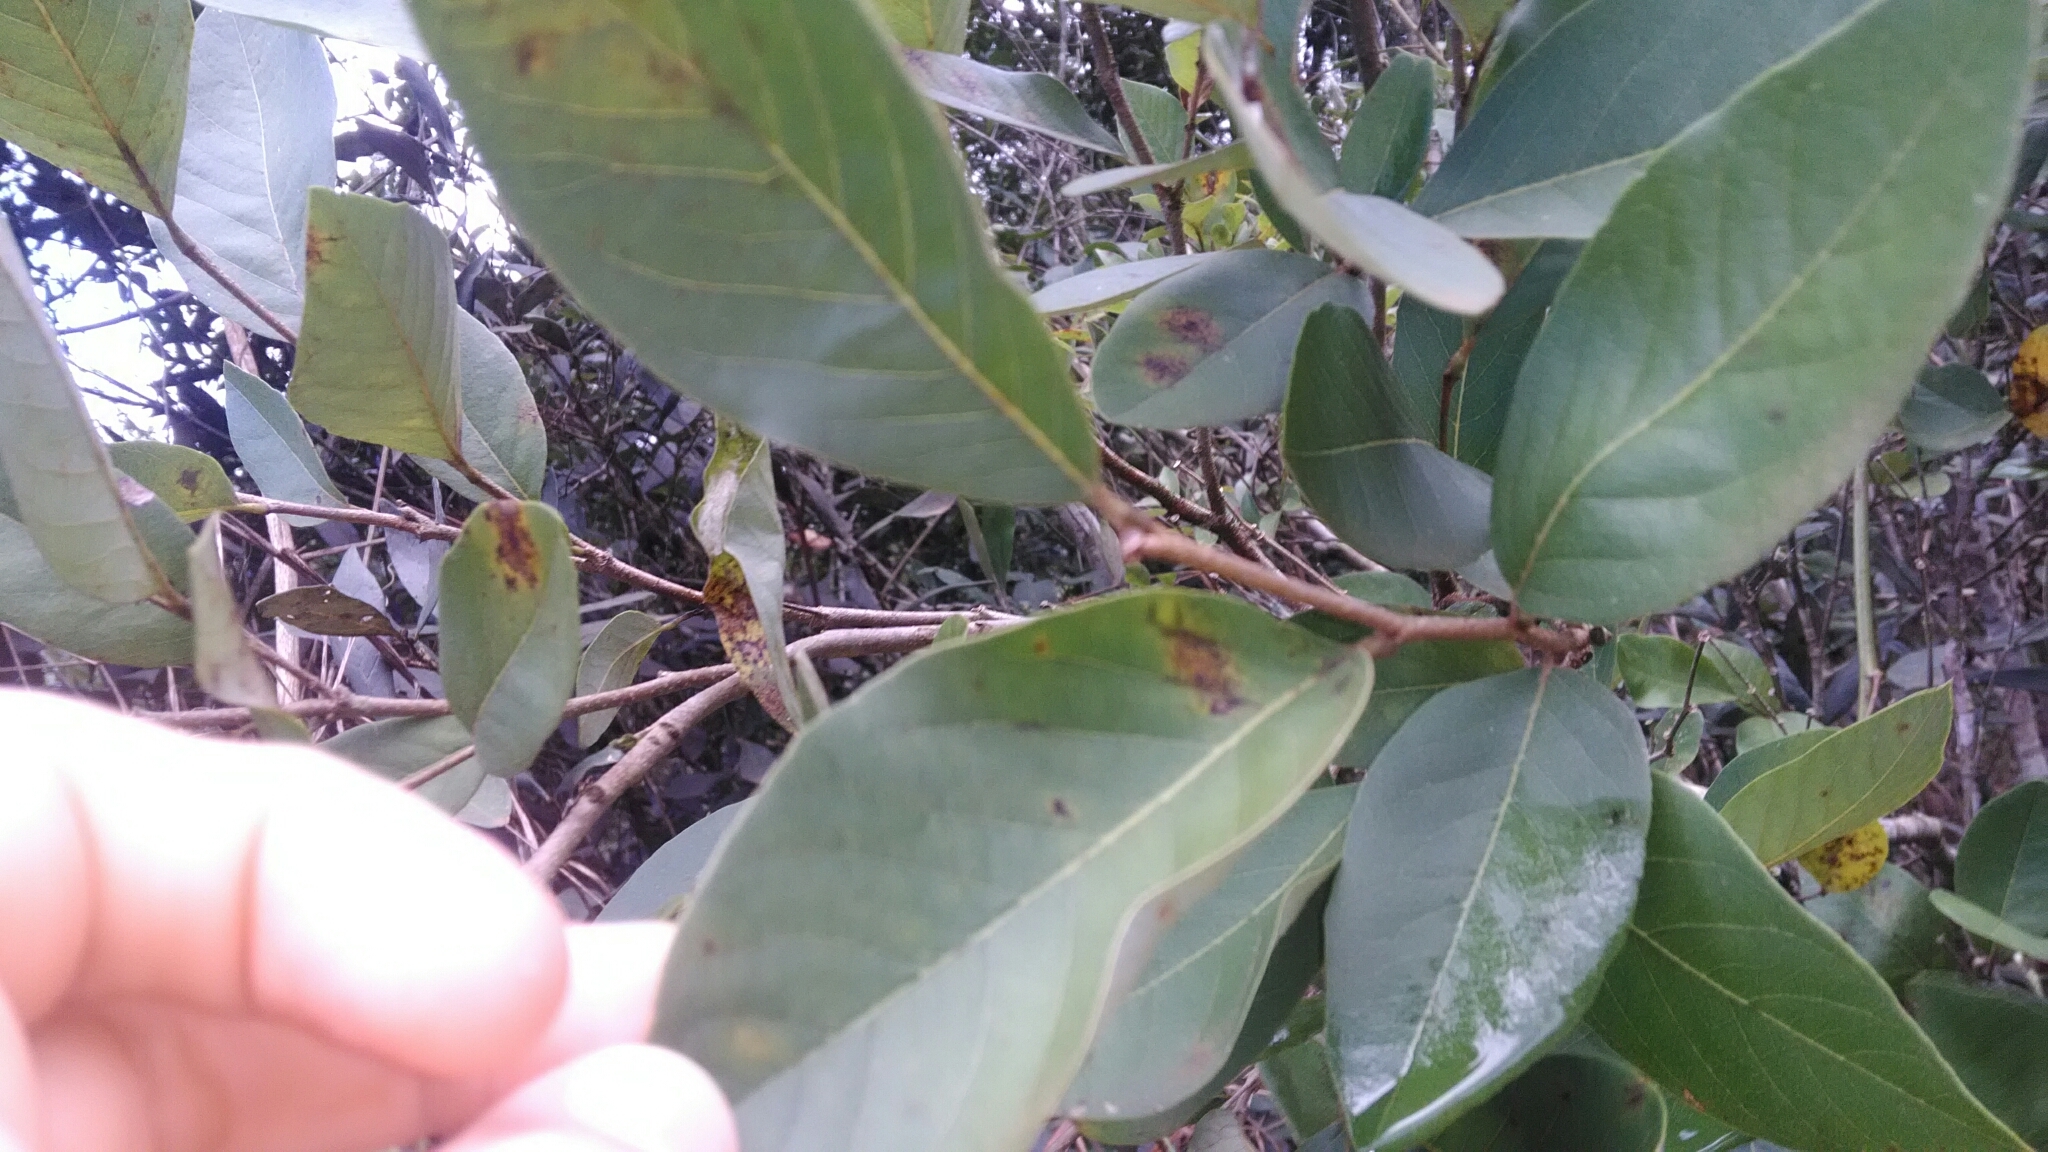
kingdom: Plantae
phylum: Tracheophyta
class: Magnoliopsida
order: Magnoliales
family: Annonaceae
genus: Annona
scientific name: Annona cornifolia
